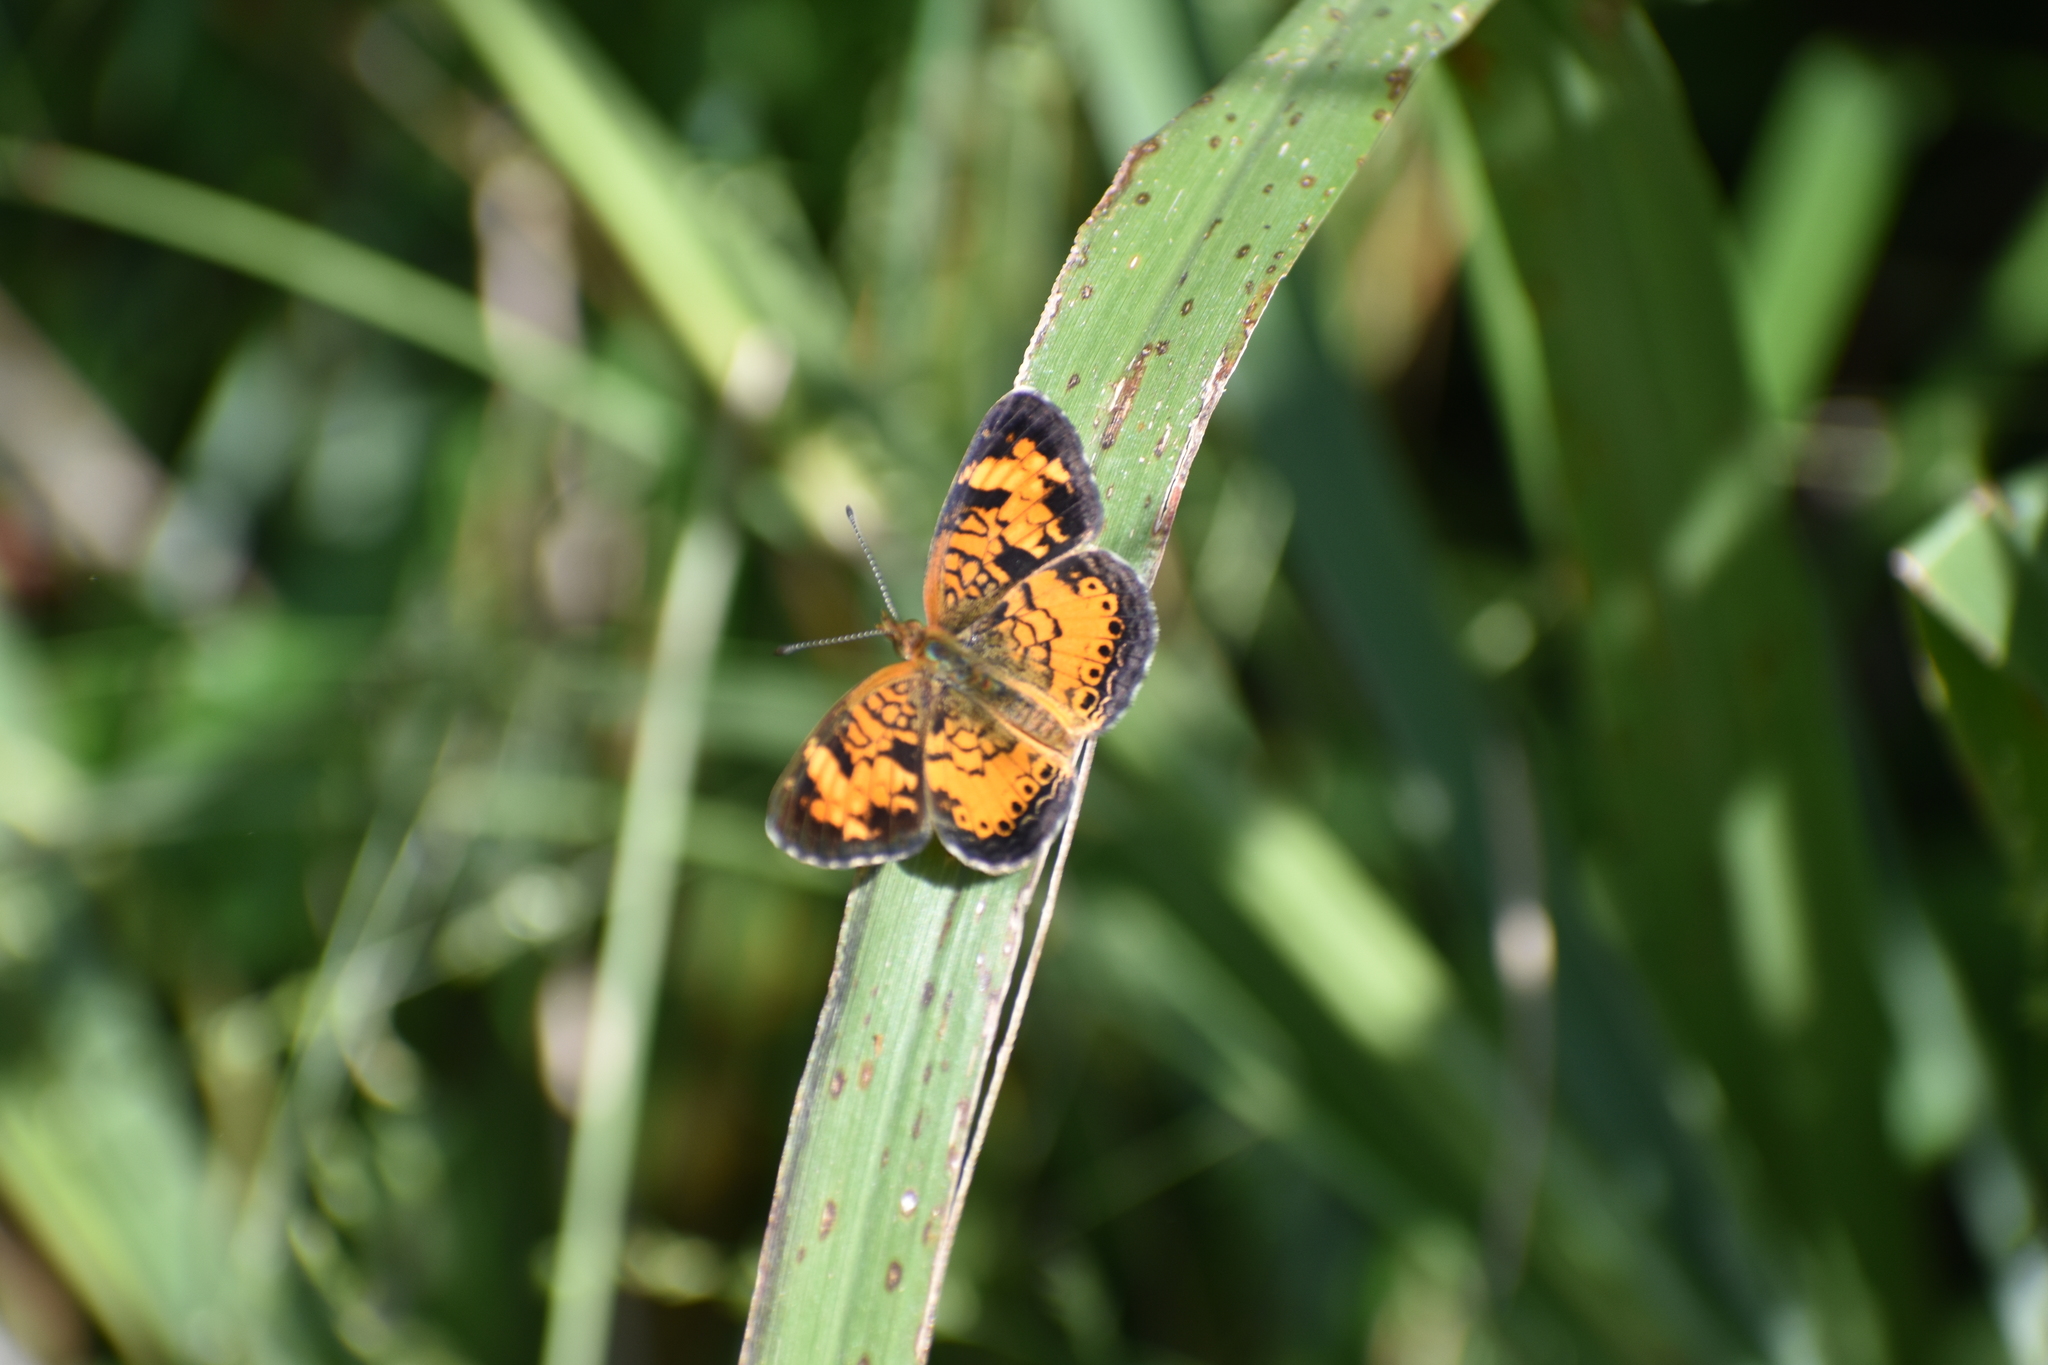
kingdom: Animalia
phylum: Arthropoda
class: Insecta
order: Lepidoptera
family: Nymphalidae
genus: Phyciodes
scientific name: Phyciodes tharos
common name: Pearl crescent
